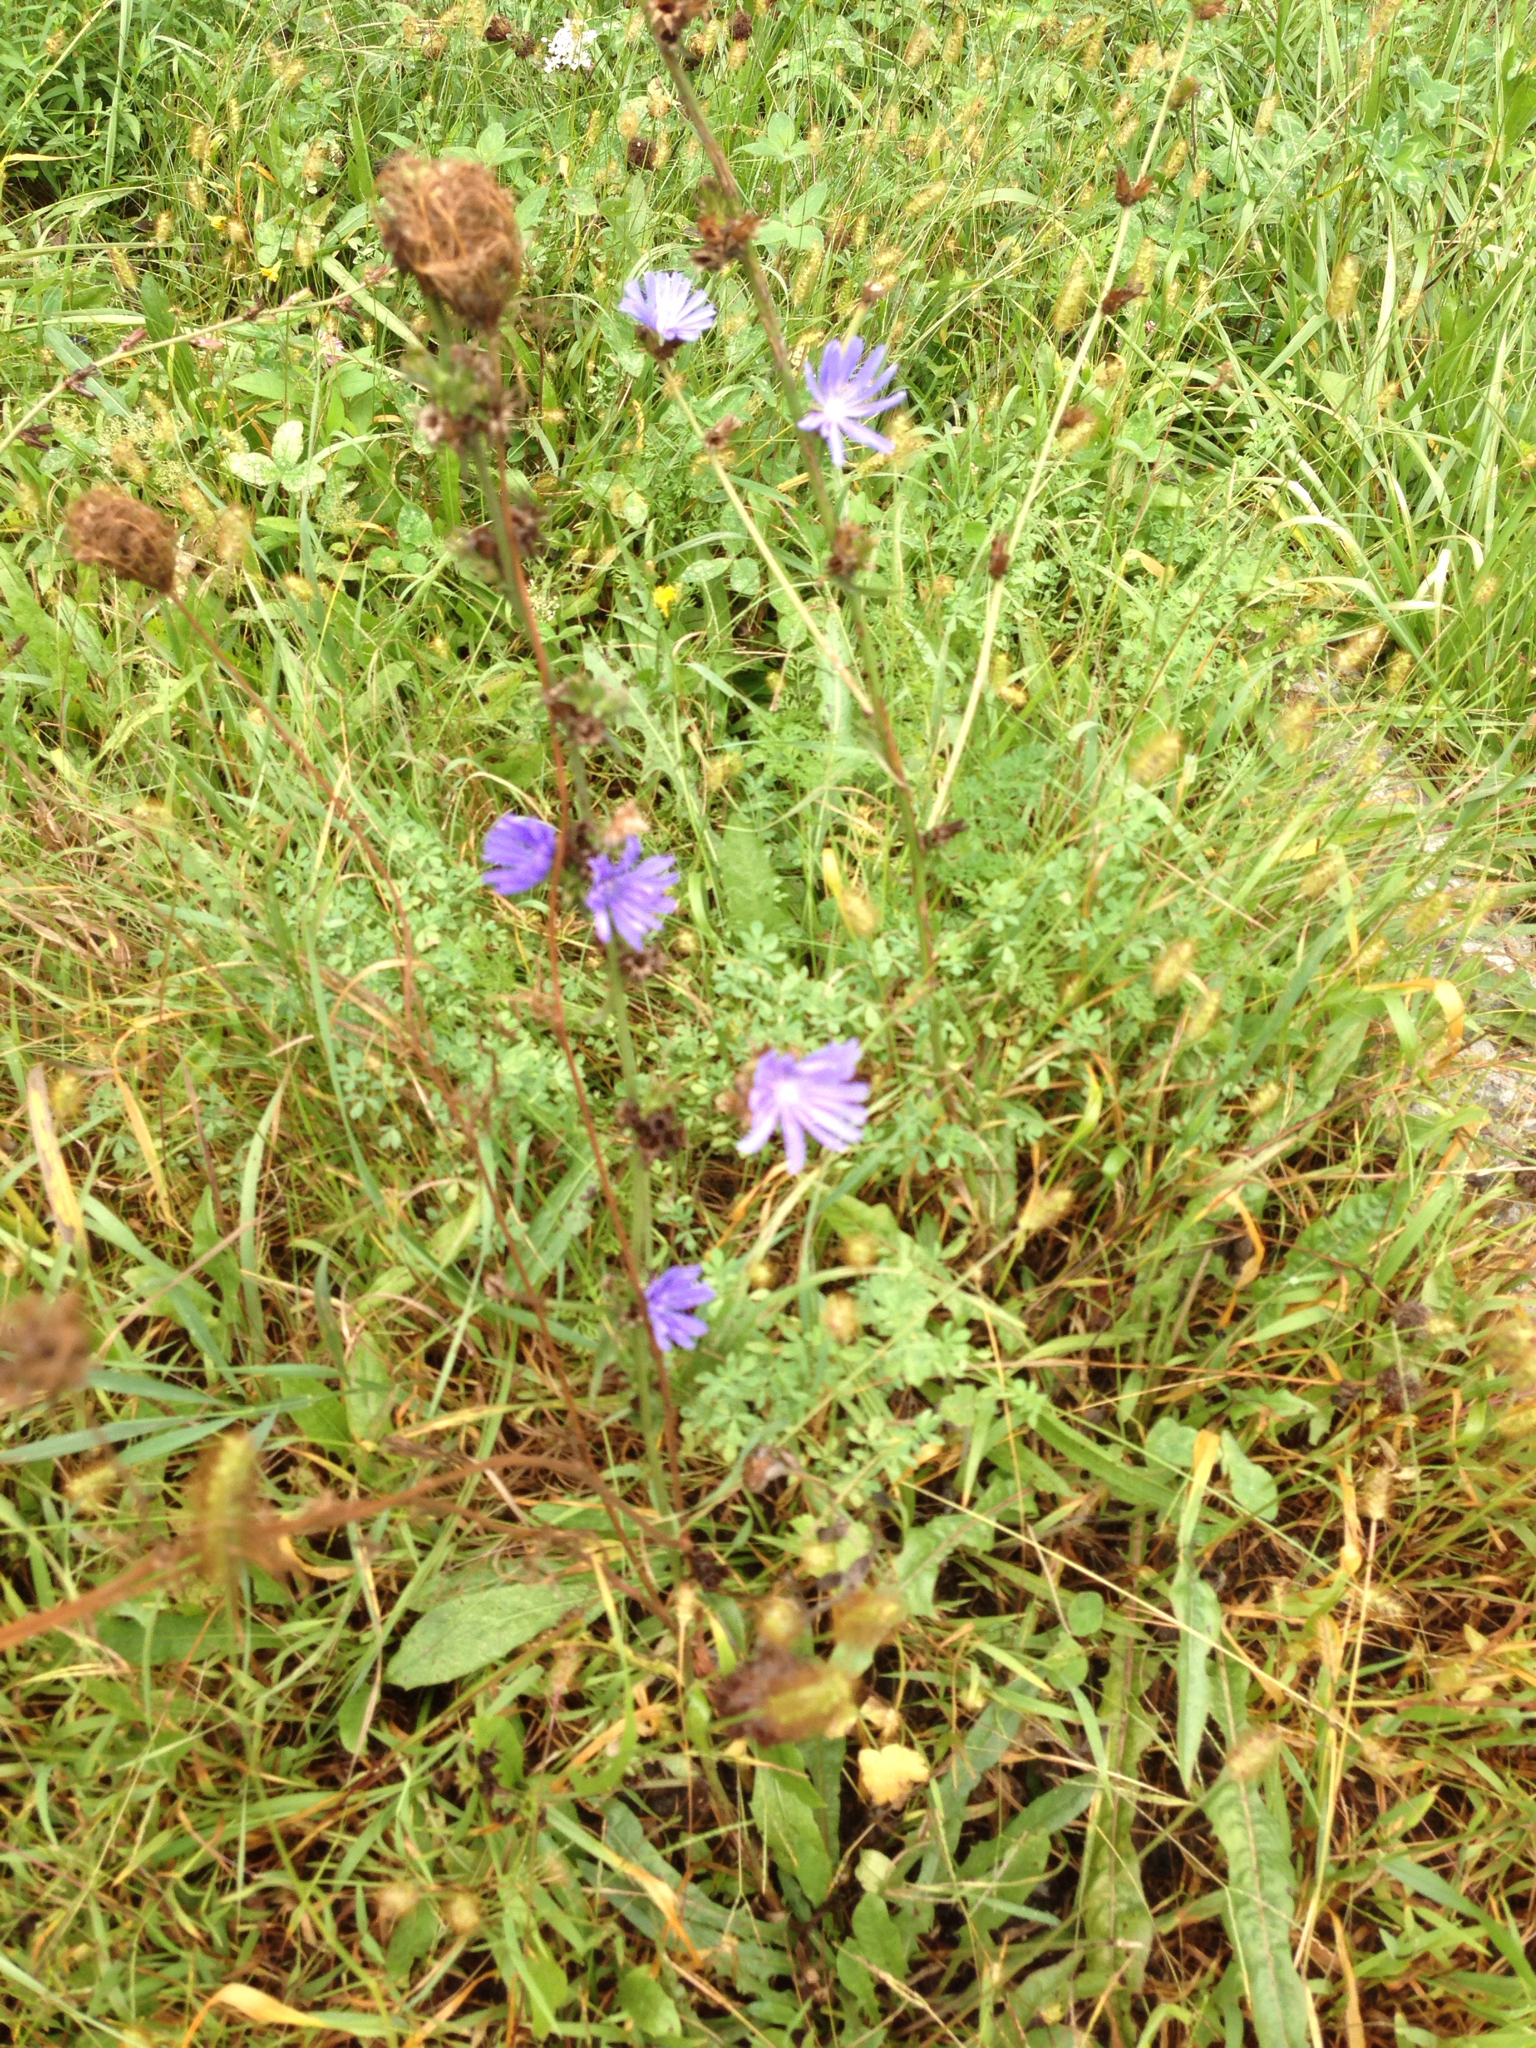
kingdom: Plantae
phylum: Tracheophyta
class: Magnoliopsida
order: Asterales
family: Asteraceae
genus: Cichorium
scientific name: Cichorium intybus
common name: Chicory
